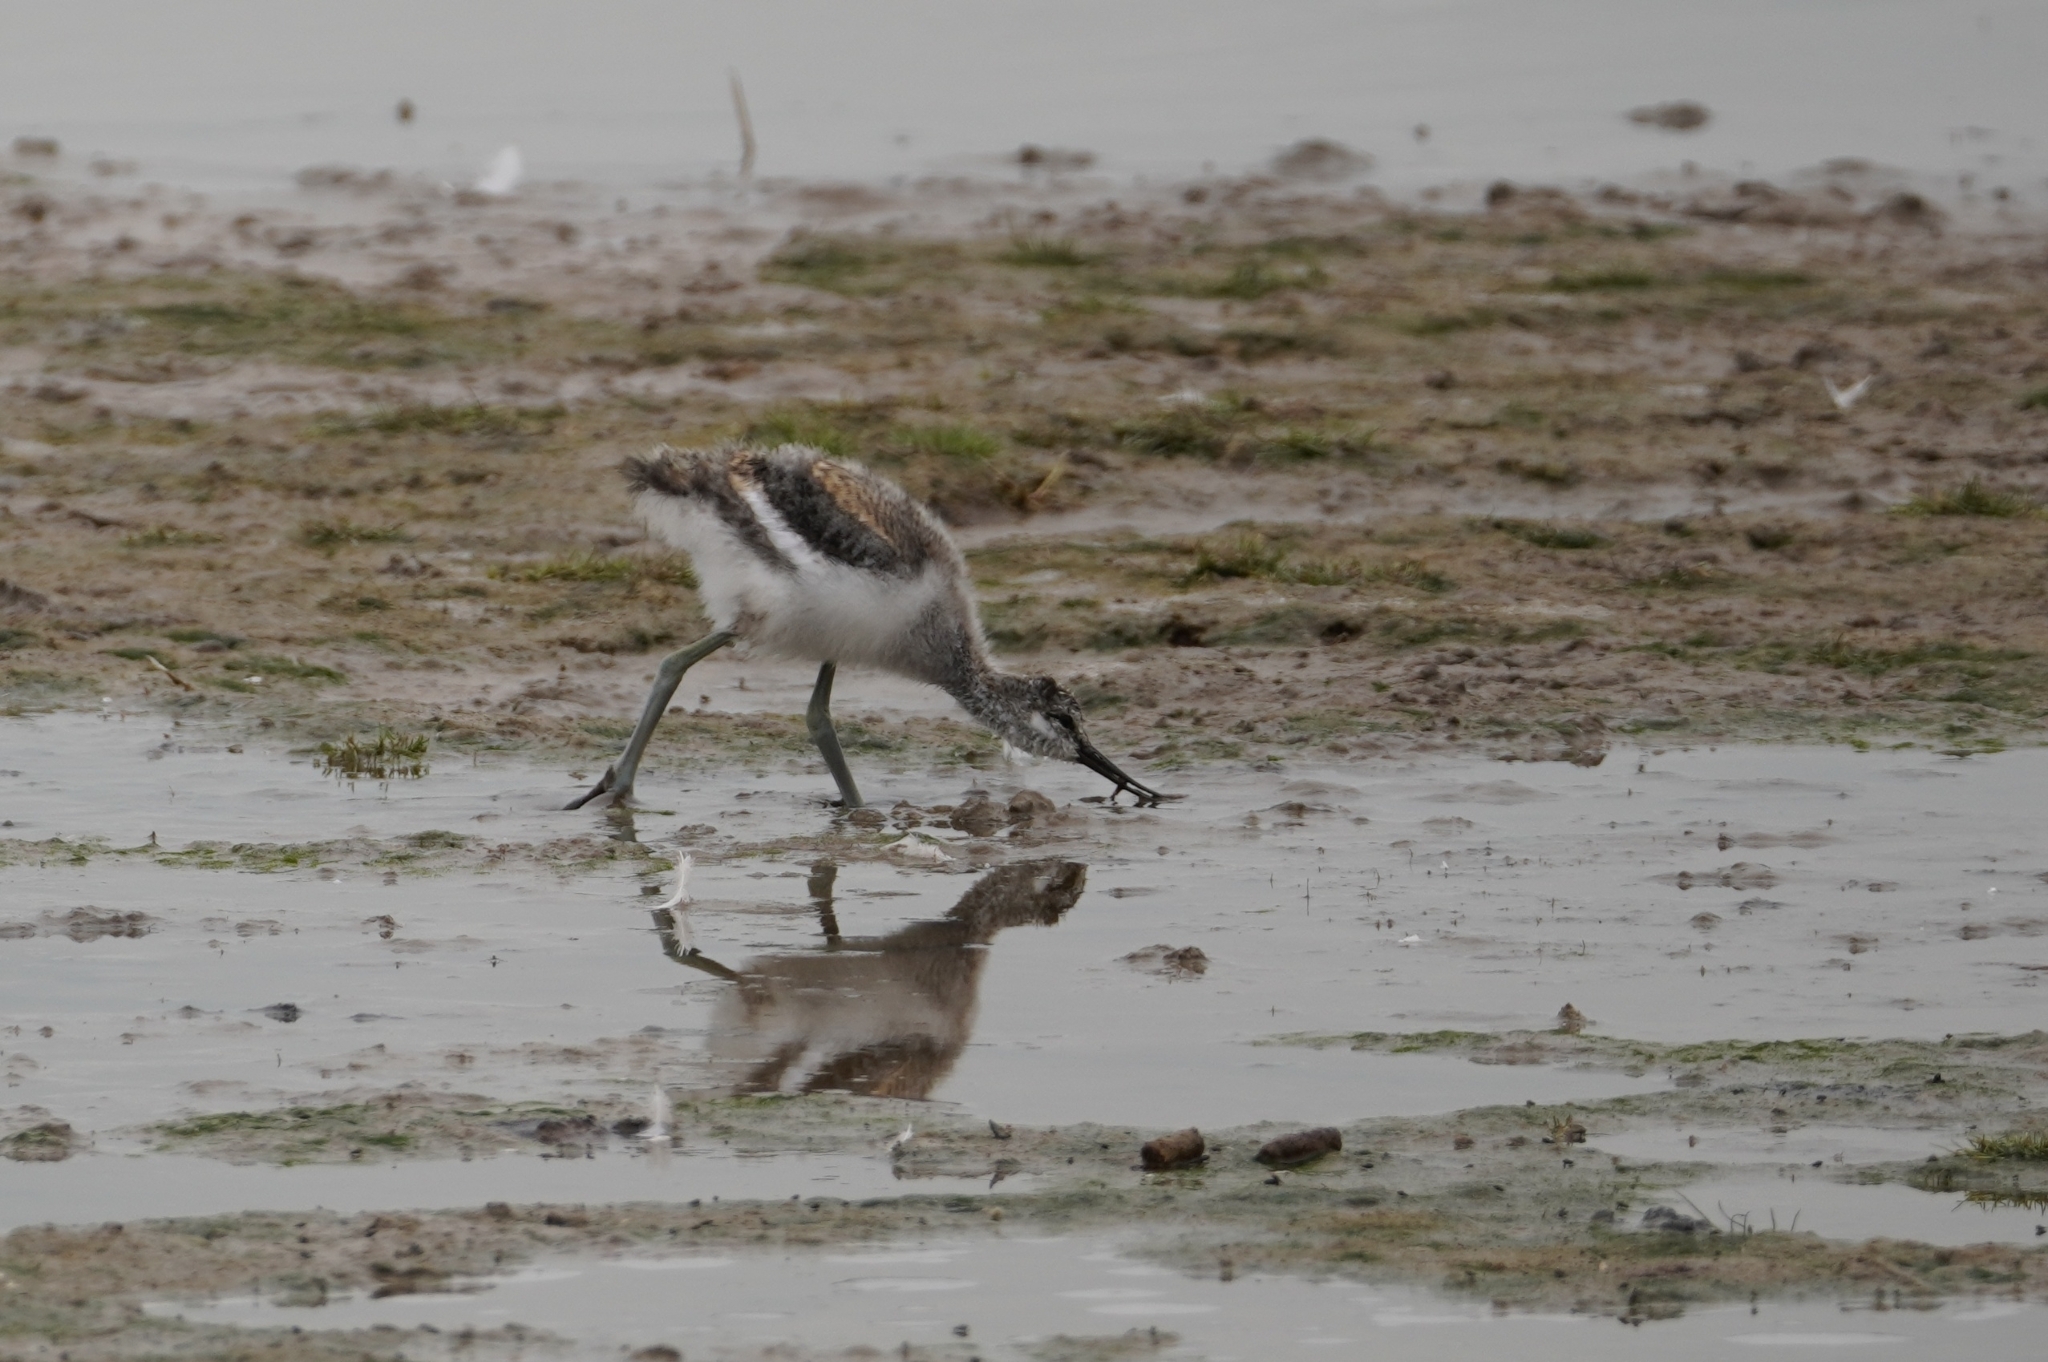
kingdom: Animalia
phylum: Chordata
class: Aves
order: Charadriiformes
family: Recurvirostridae
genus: Recurvirostra
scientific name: Recurvirostra avosetta
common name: Pied avocet
